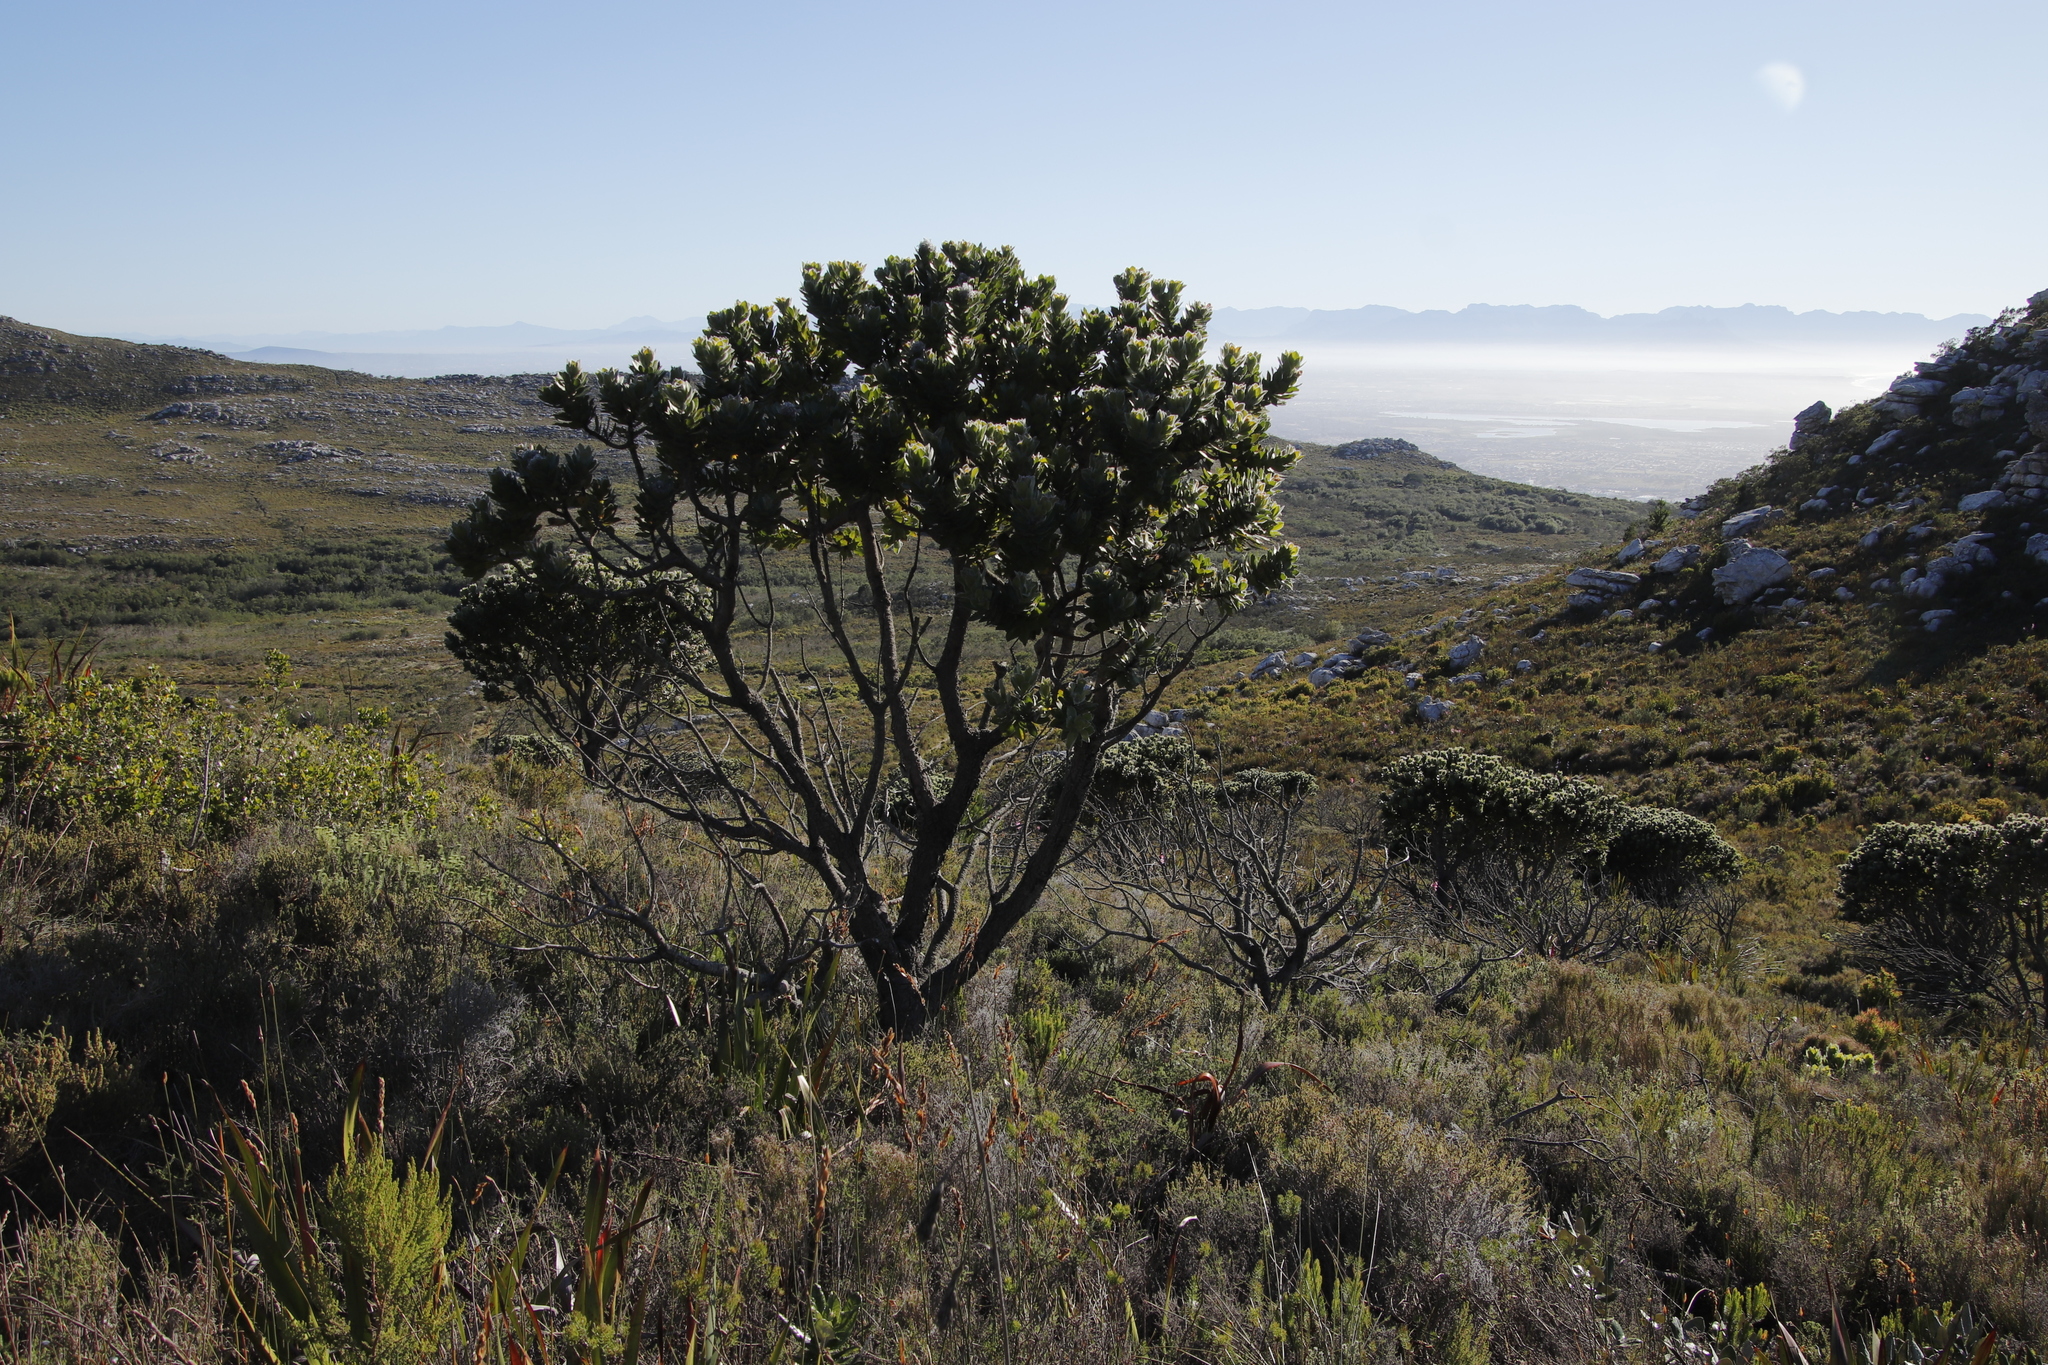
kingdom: Plantae
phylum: Tracheophyta
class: Magnoliopsida
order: Proteales
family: Proteaceae
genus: Mimetes
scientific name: Mimetes fimbriifolius
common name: Fringed bottlebrush
